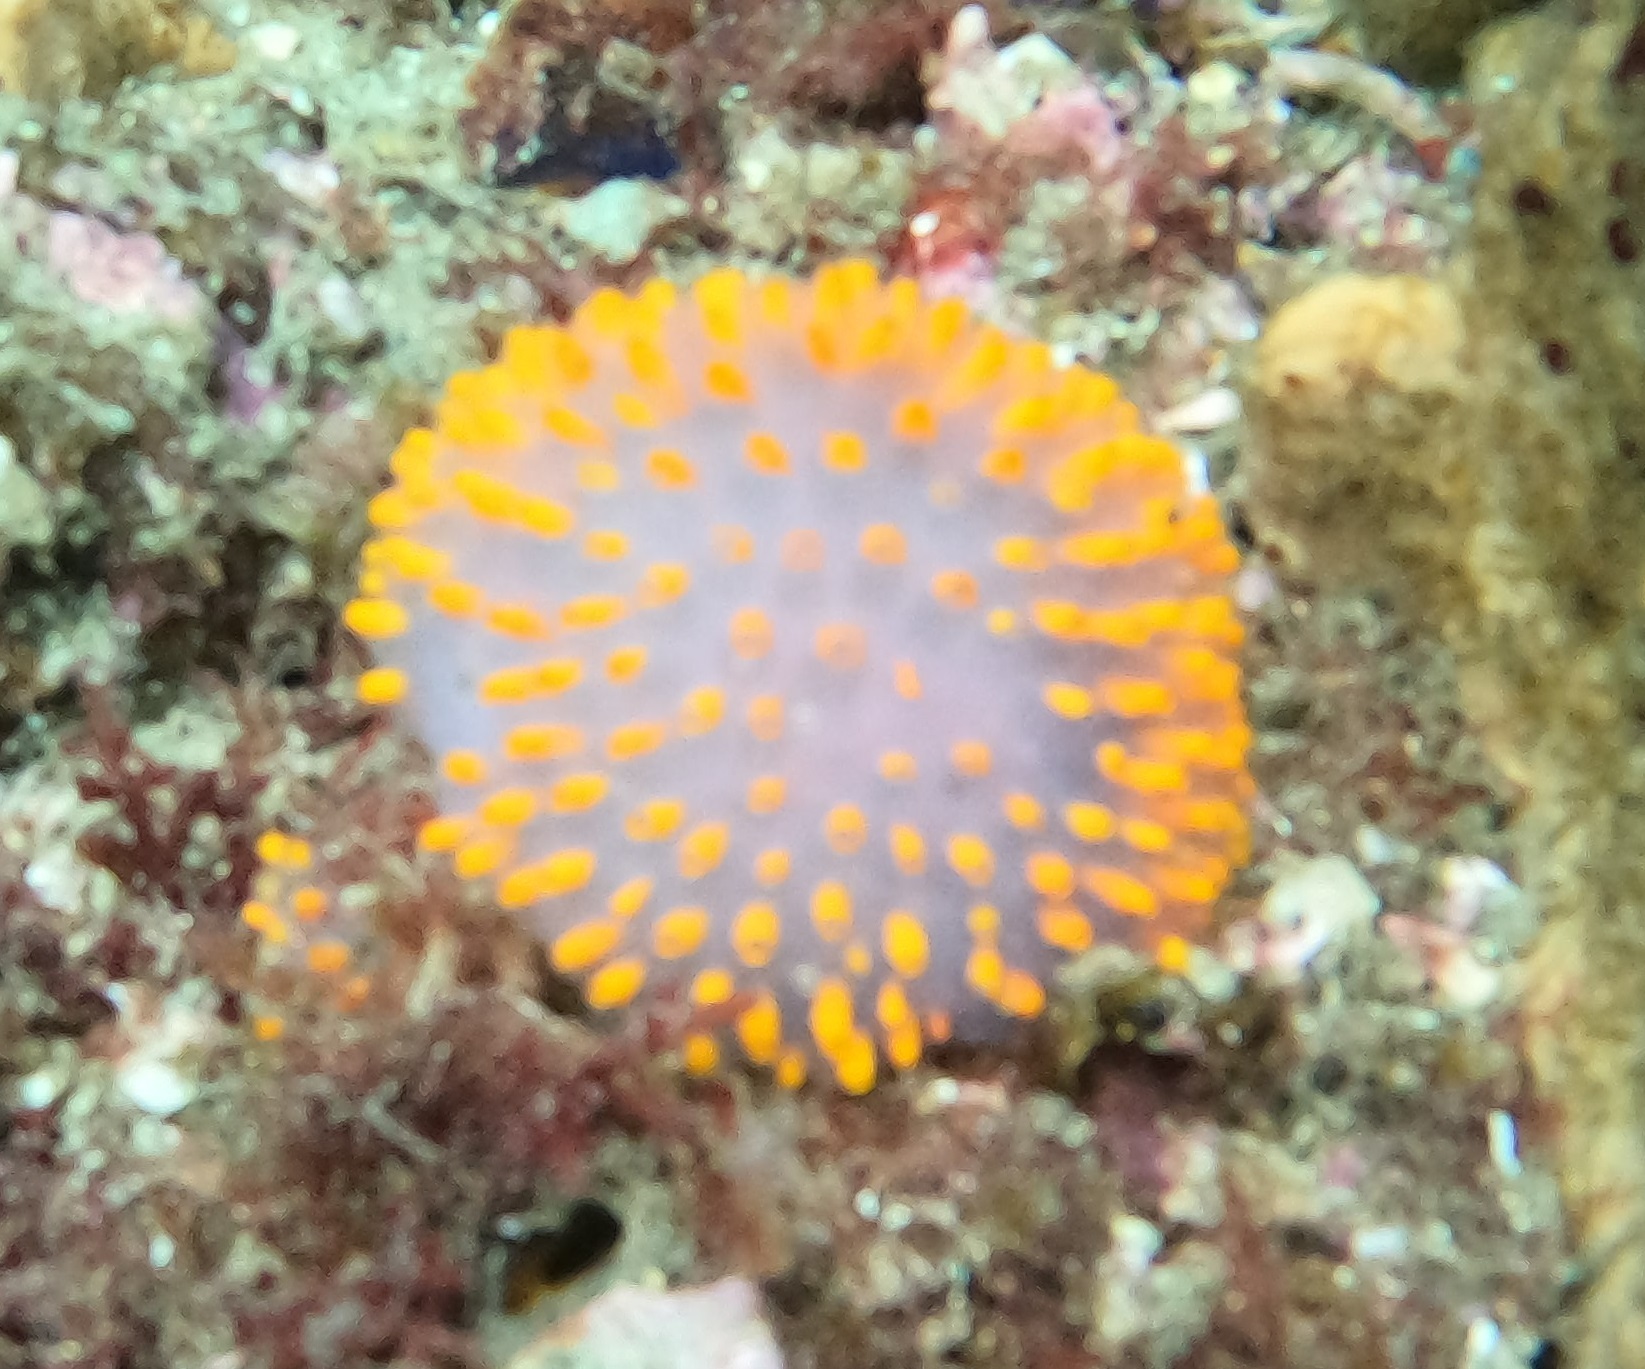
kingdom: Animalia
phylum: Chordata
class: Ascidiacea
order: Aplousobranchia
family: Polycitoridae
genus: Polycitor
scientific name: Polycitor giganteus
